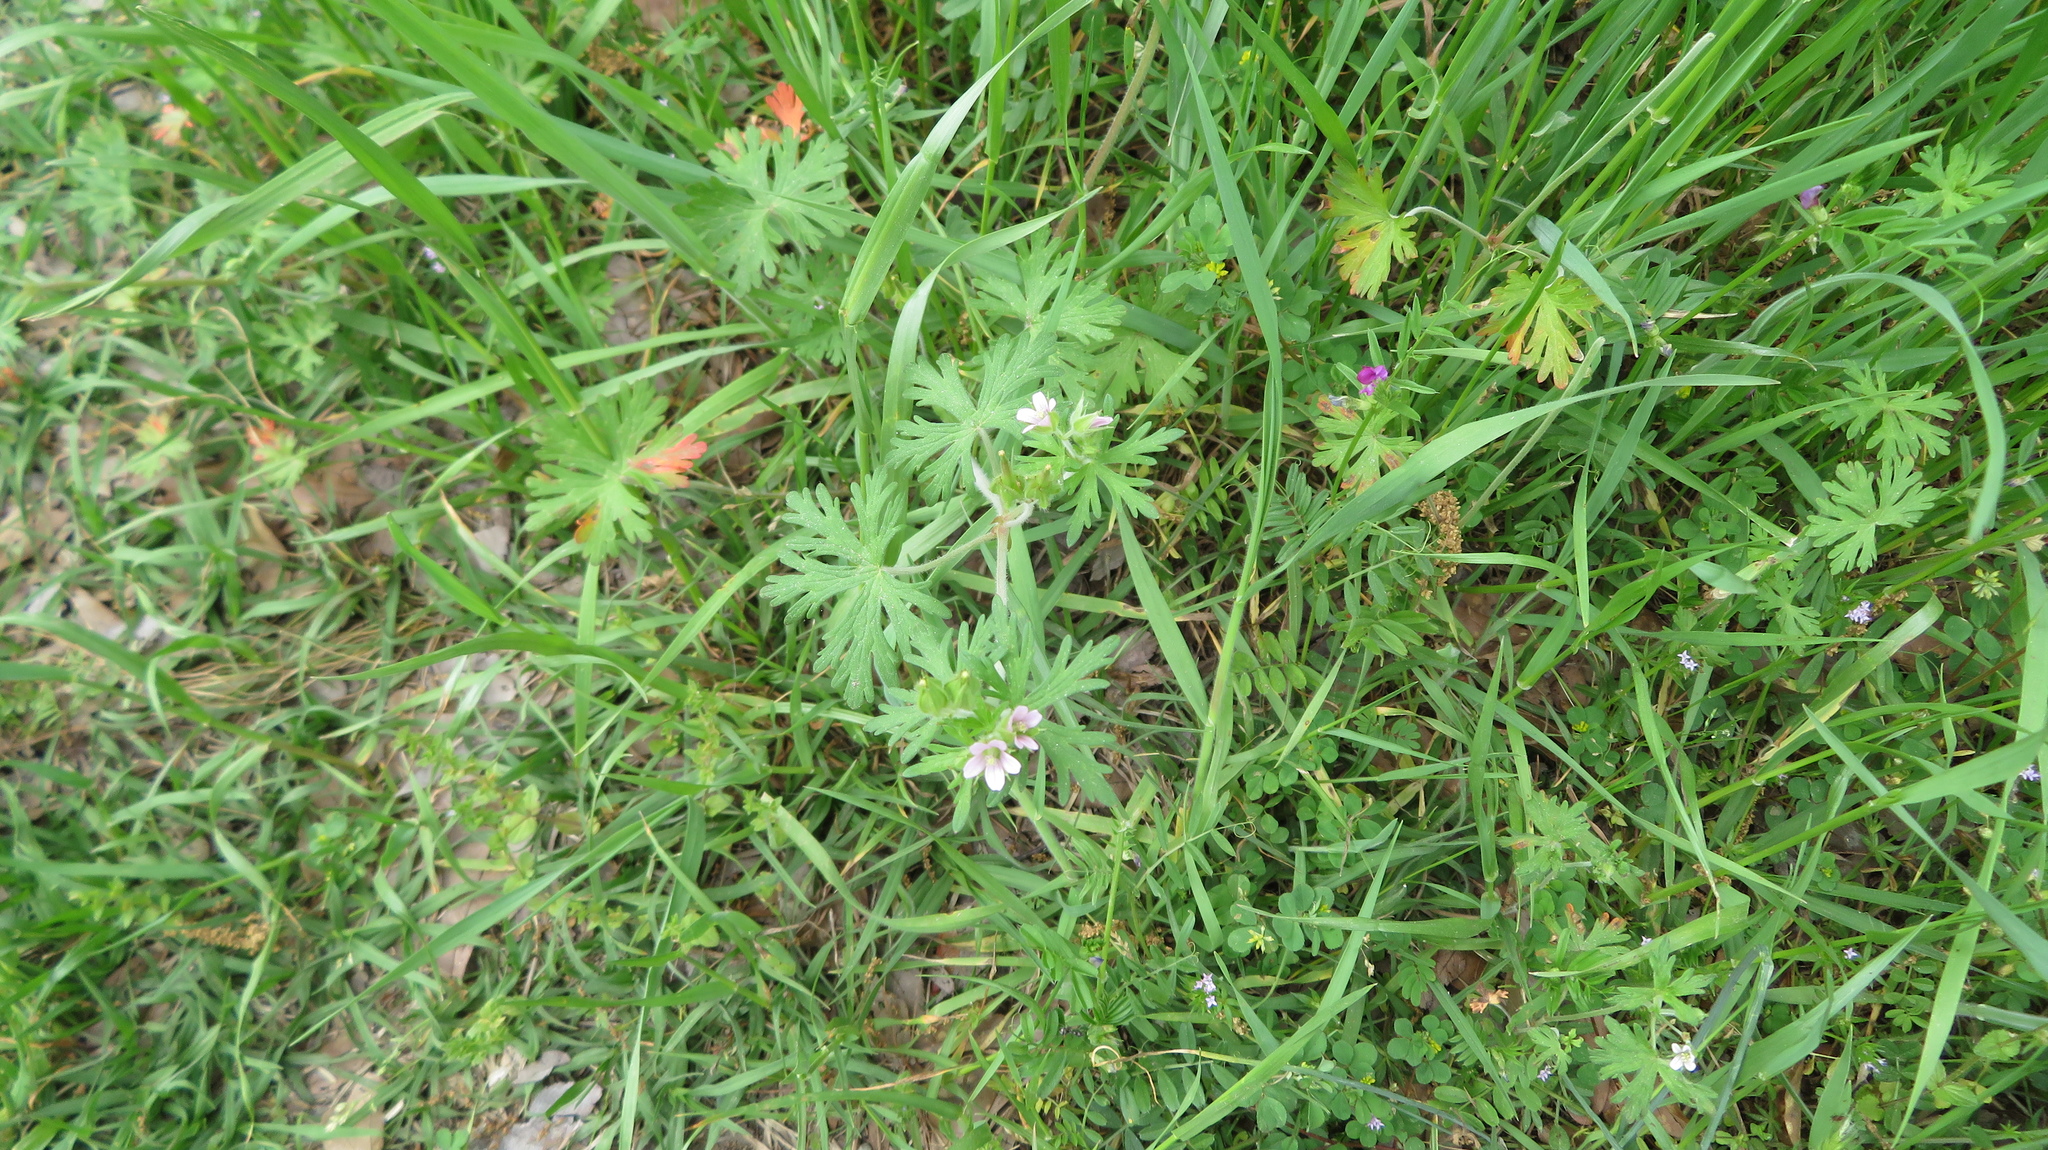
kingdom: Plantae
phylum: Tracheophyta
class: Magnoliopsida
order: Geraniales
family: Geraniaceae
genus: Geranium
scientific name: Geranium carolinianum
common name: Carolina crane's-bill
